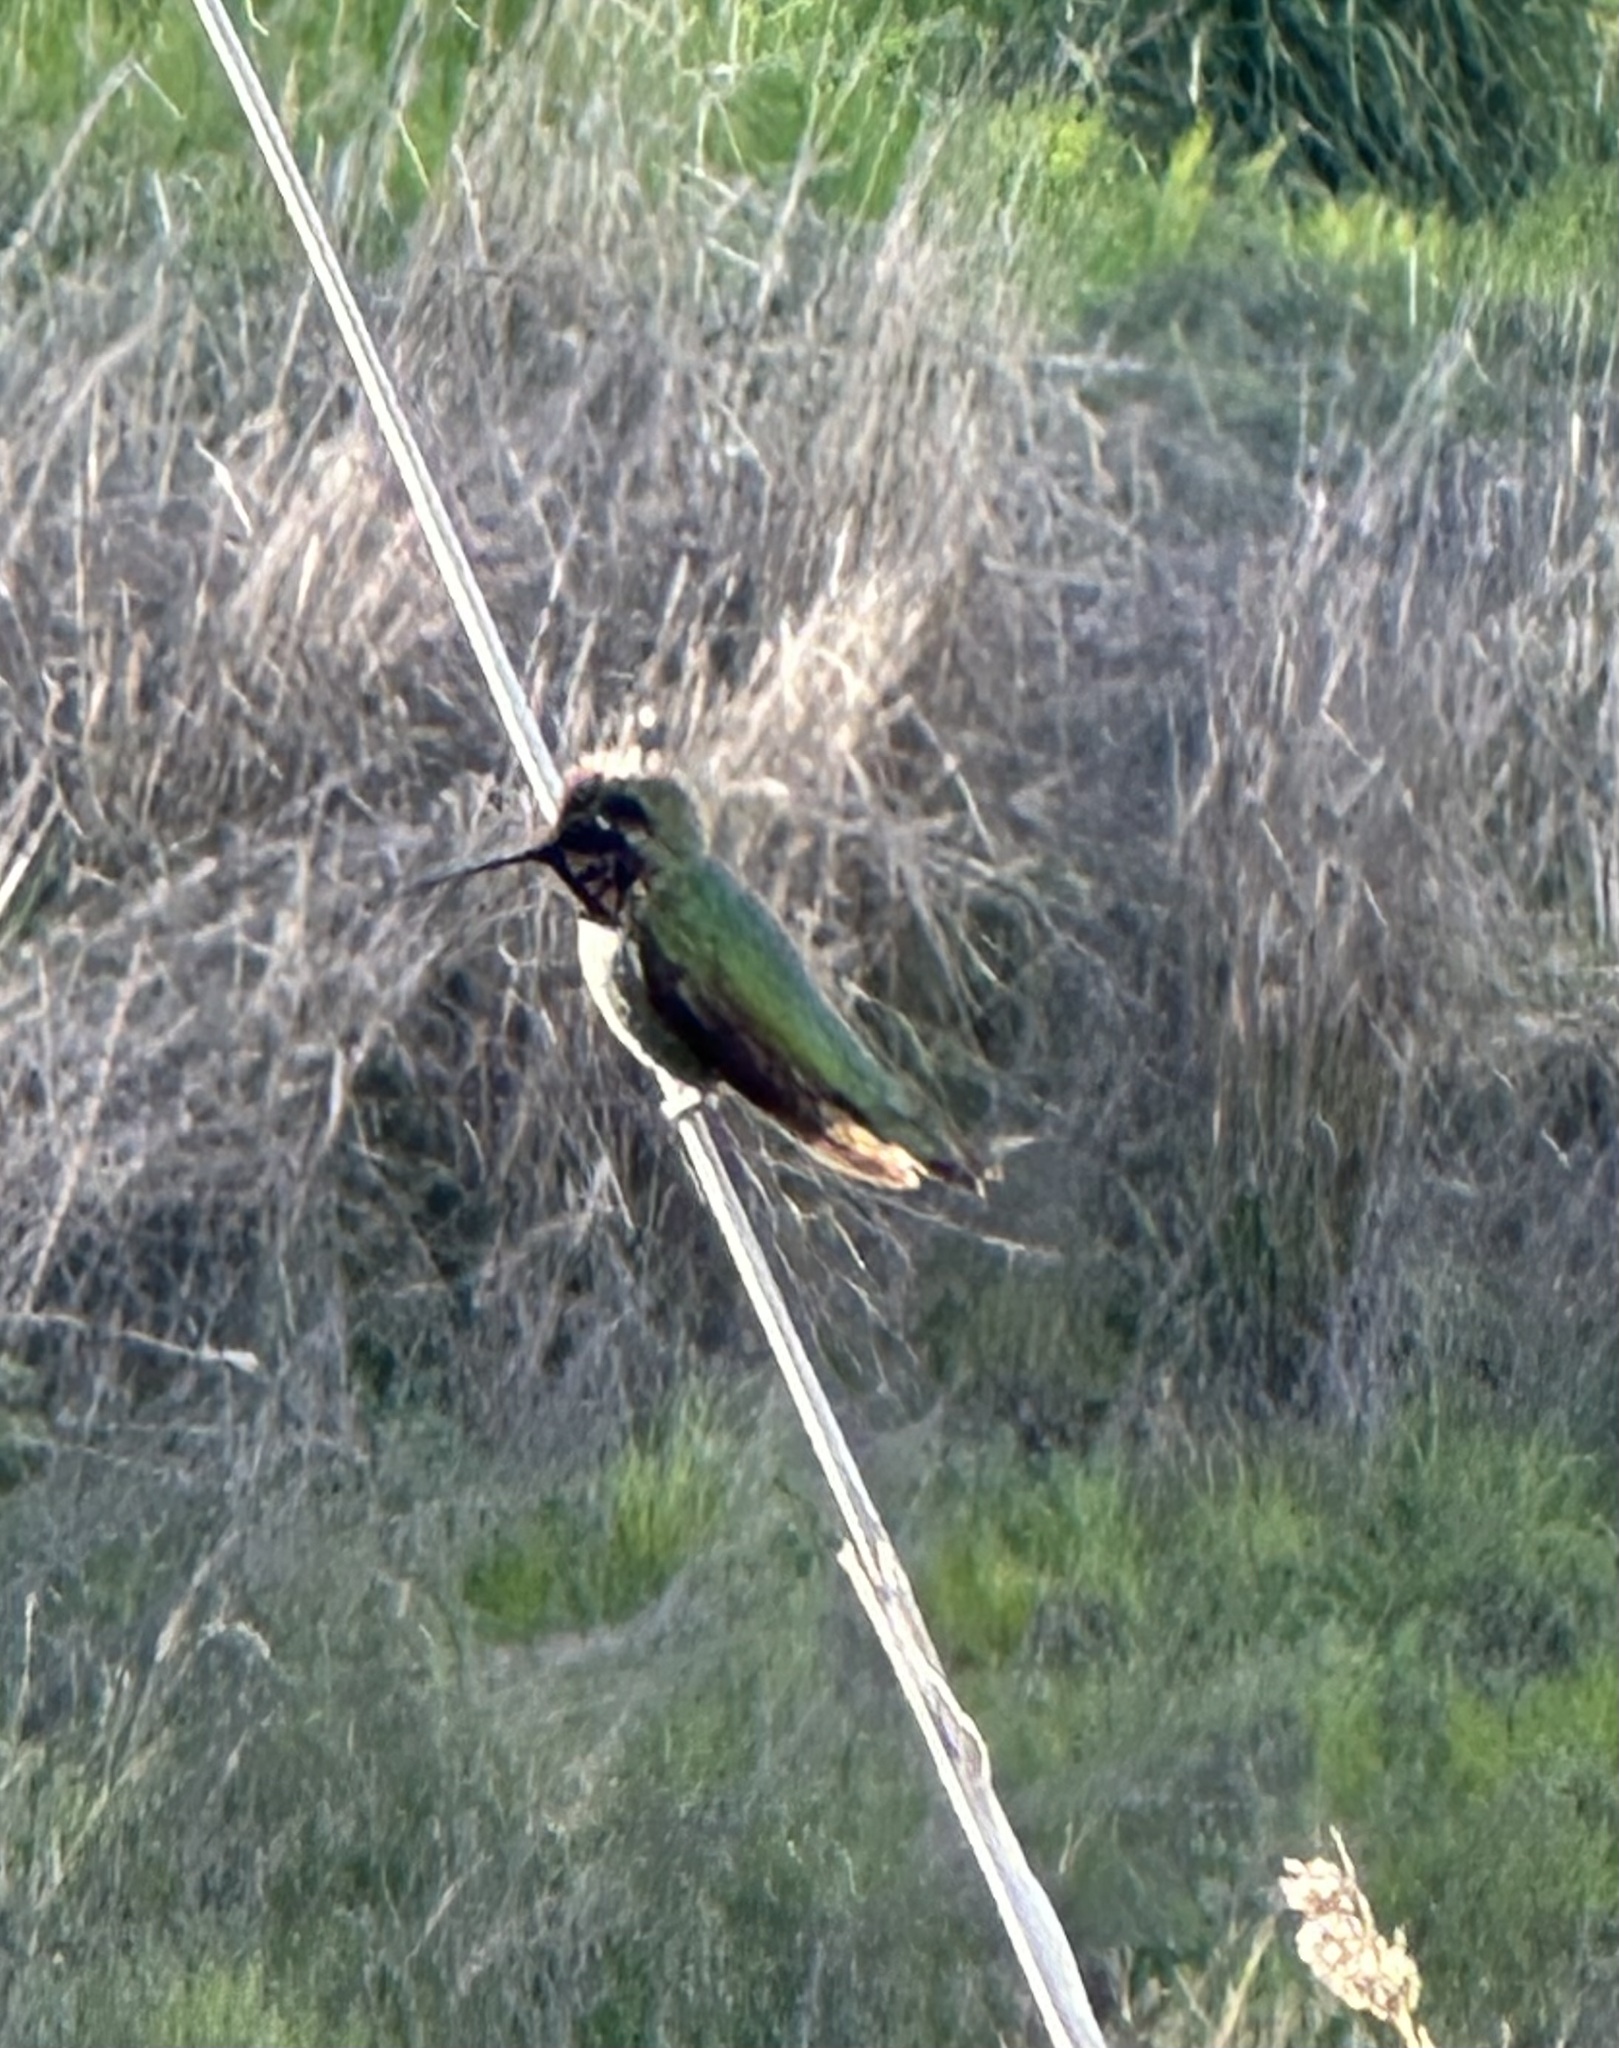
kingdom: Animalia
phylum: Chordata
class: Aves
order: Apodiformes
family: Trochilidae
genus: Calypte
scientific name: Calypte anna
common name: Anna's hummingbird
